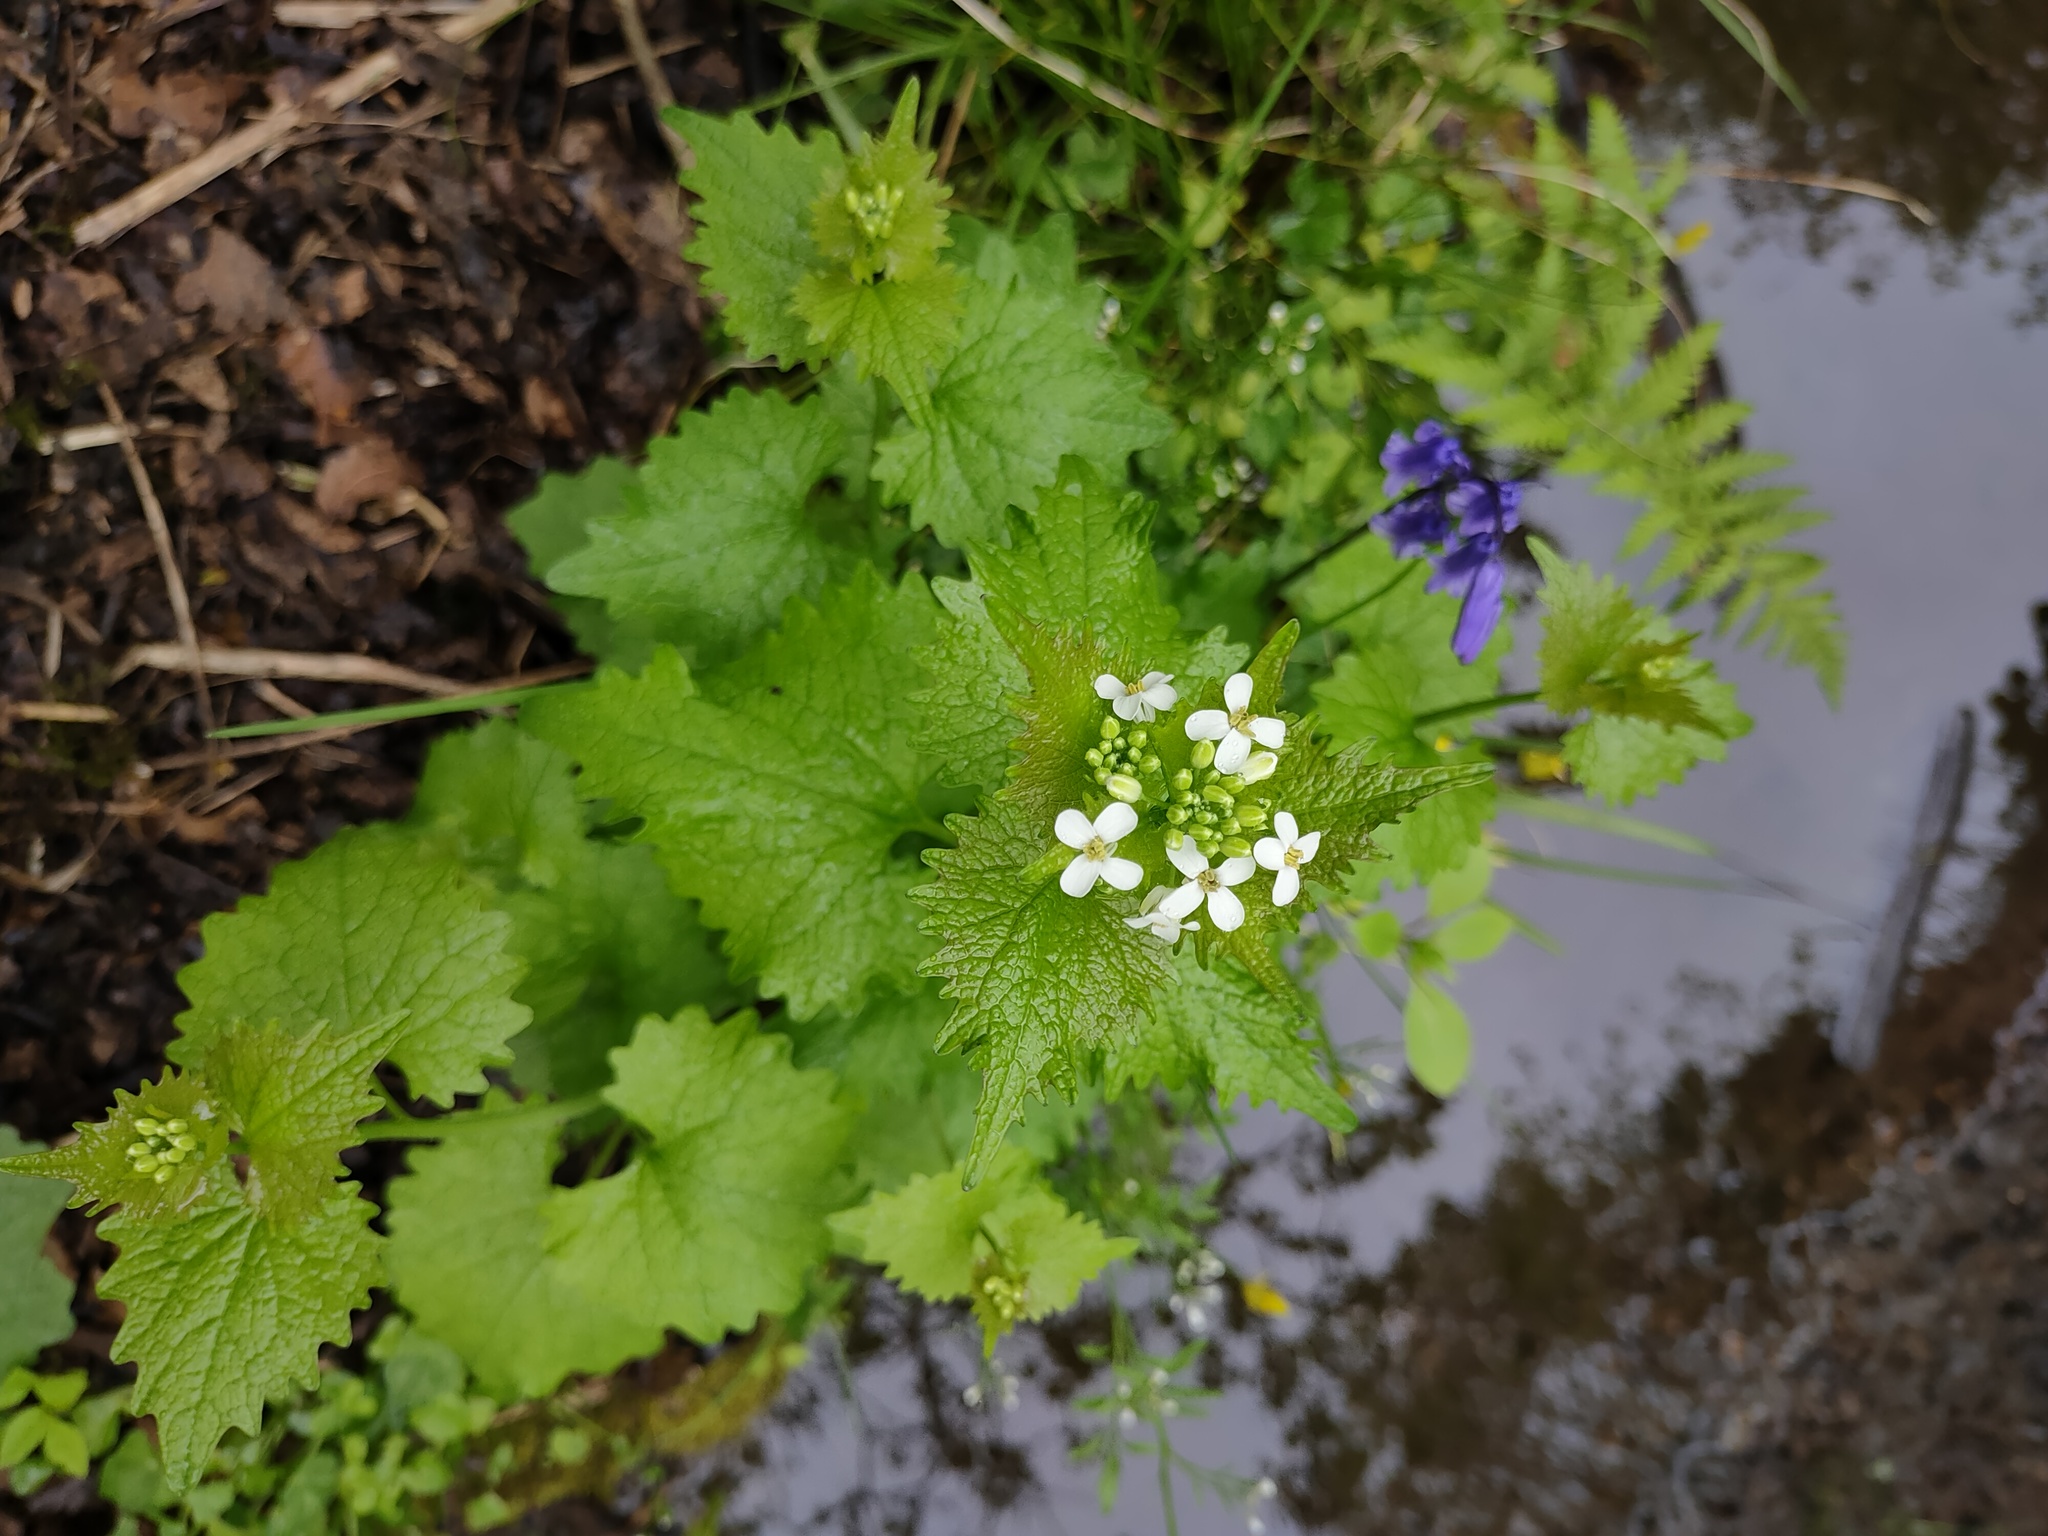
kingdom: Plantae
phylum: Tracheophyta
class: Magnoliopsida
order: Brassicales
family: Brassicaceae
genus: Alliaria
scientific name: Alliaria petiolata
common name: Garlic mustard
